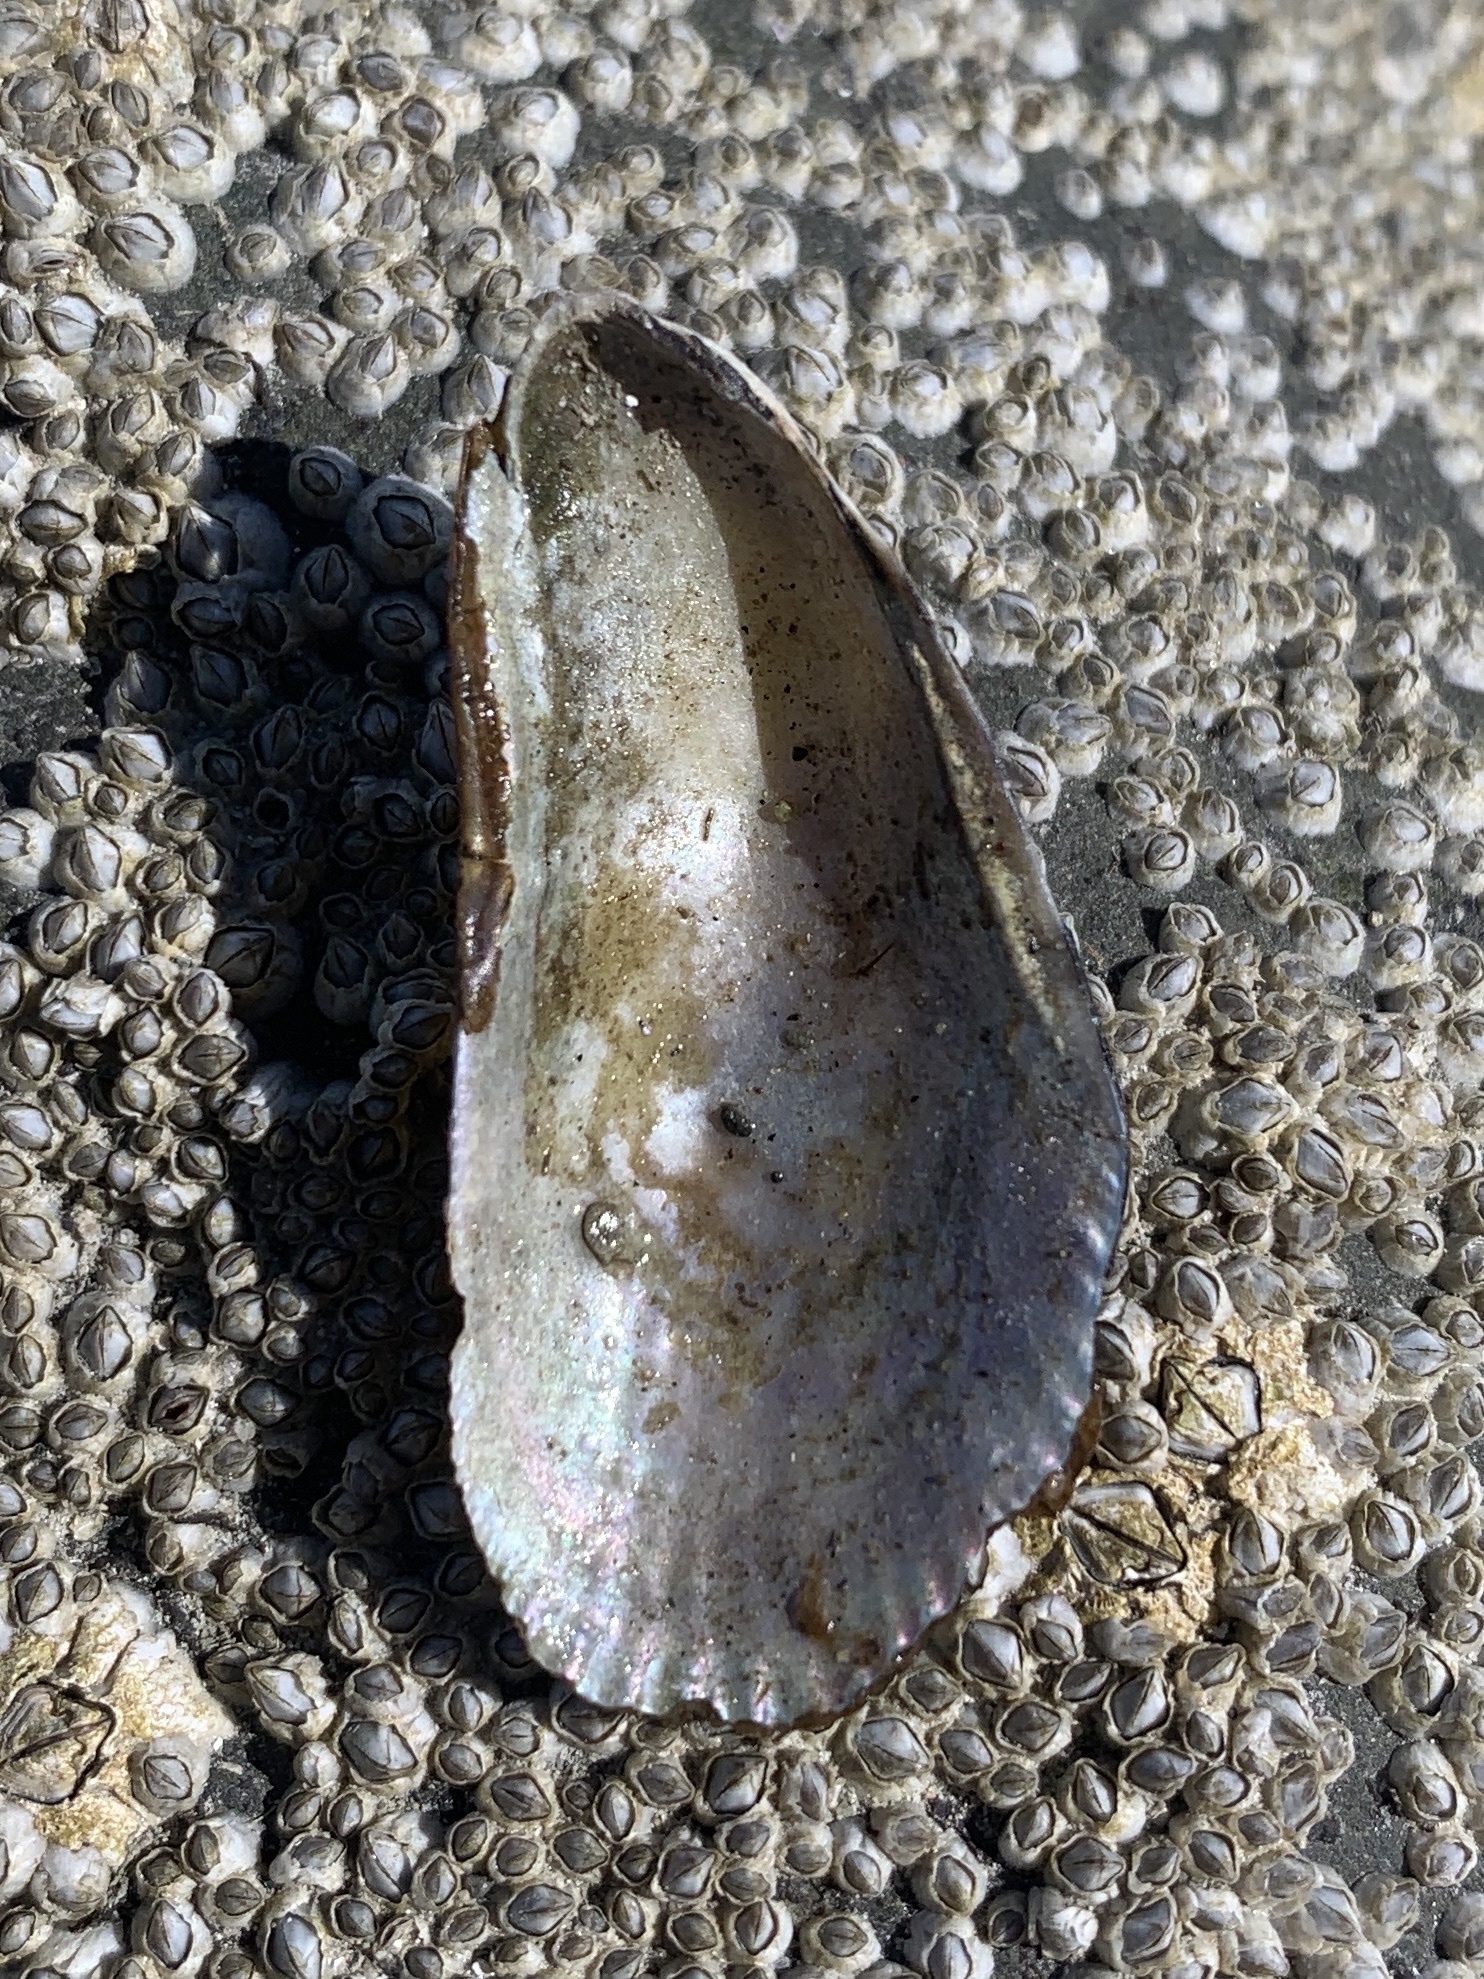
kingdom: Animalia
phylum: Mollusca
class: Bivalvia
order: Mytilida
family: Mytilidae
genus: Geukensia
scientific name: Geukensia demissa
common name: Ribbed mussel
